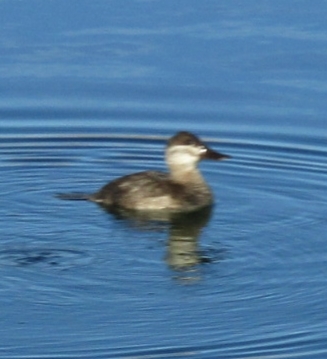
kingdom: Animalia
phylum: Chordata
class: Aves
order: Anseriformes
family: Anatidae
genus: Oxyura
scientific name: Oxyura jamaicensis
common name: Ruddy duck
